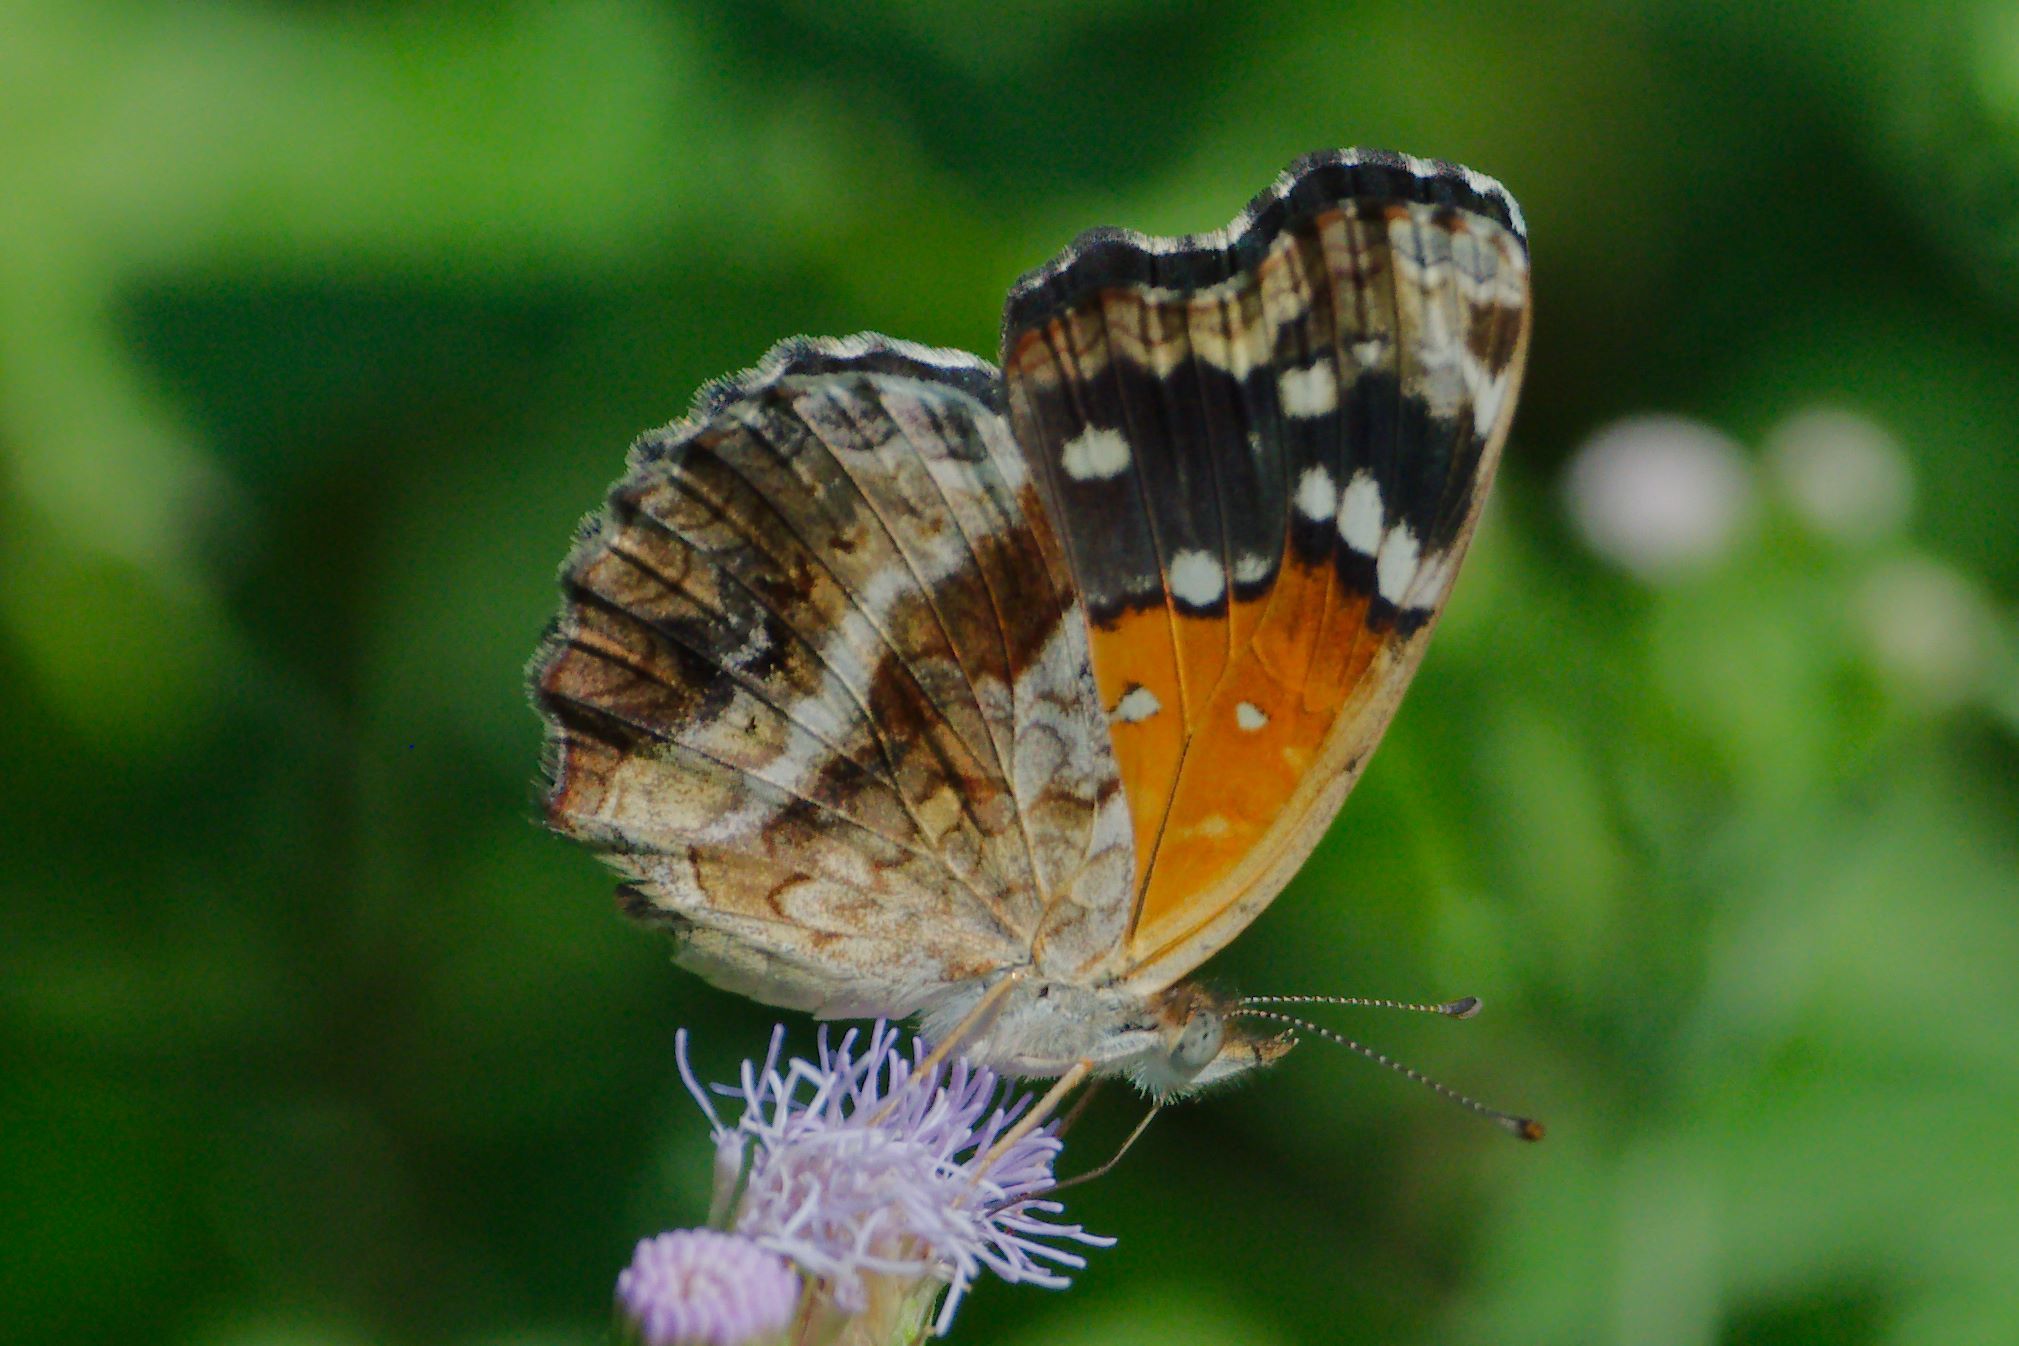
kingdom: Animalia
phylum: Arthropoda
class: Insecta
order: Lepidoptera
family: Nymphalidae
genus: Anthanassa
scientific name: Anthanassa texana
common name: Texan crescent
